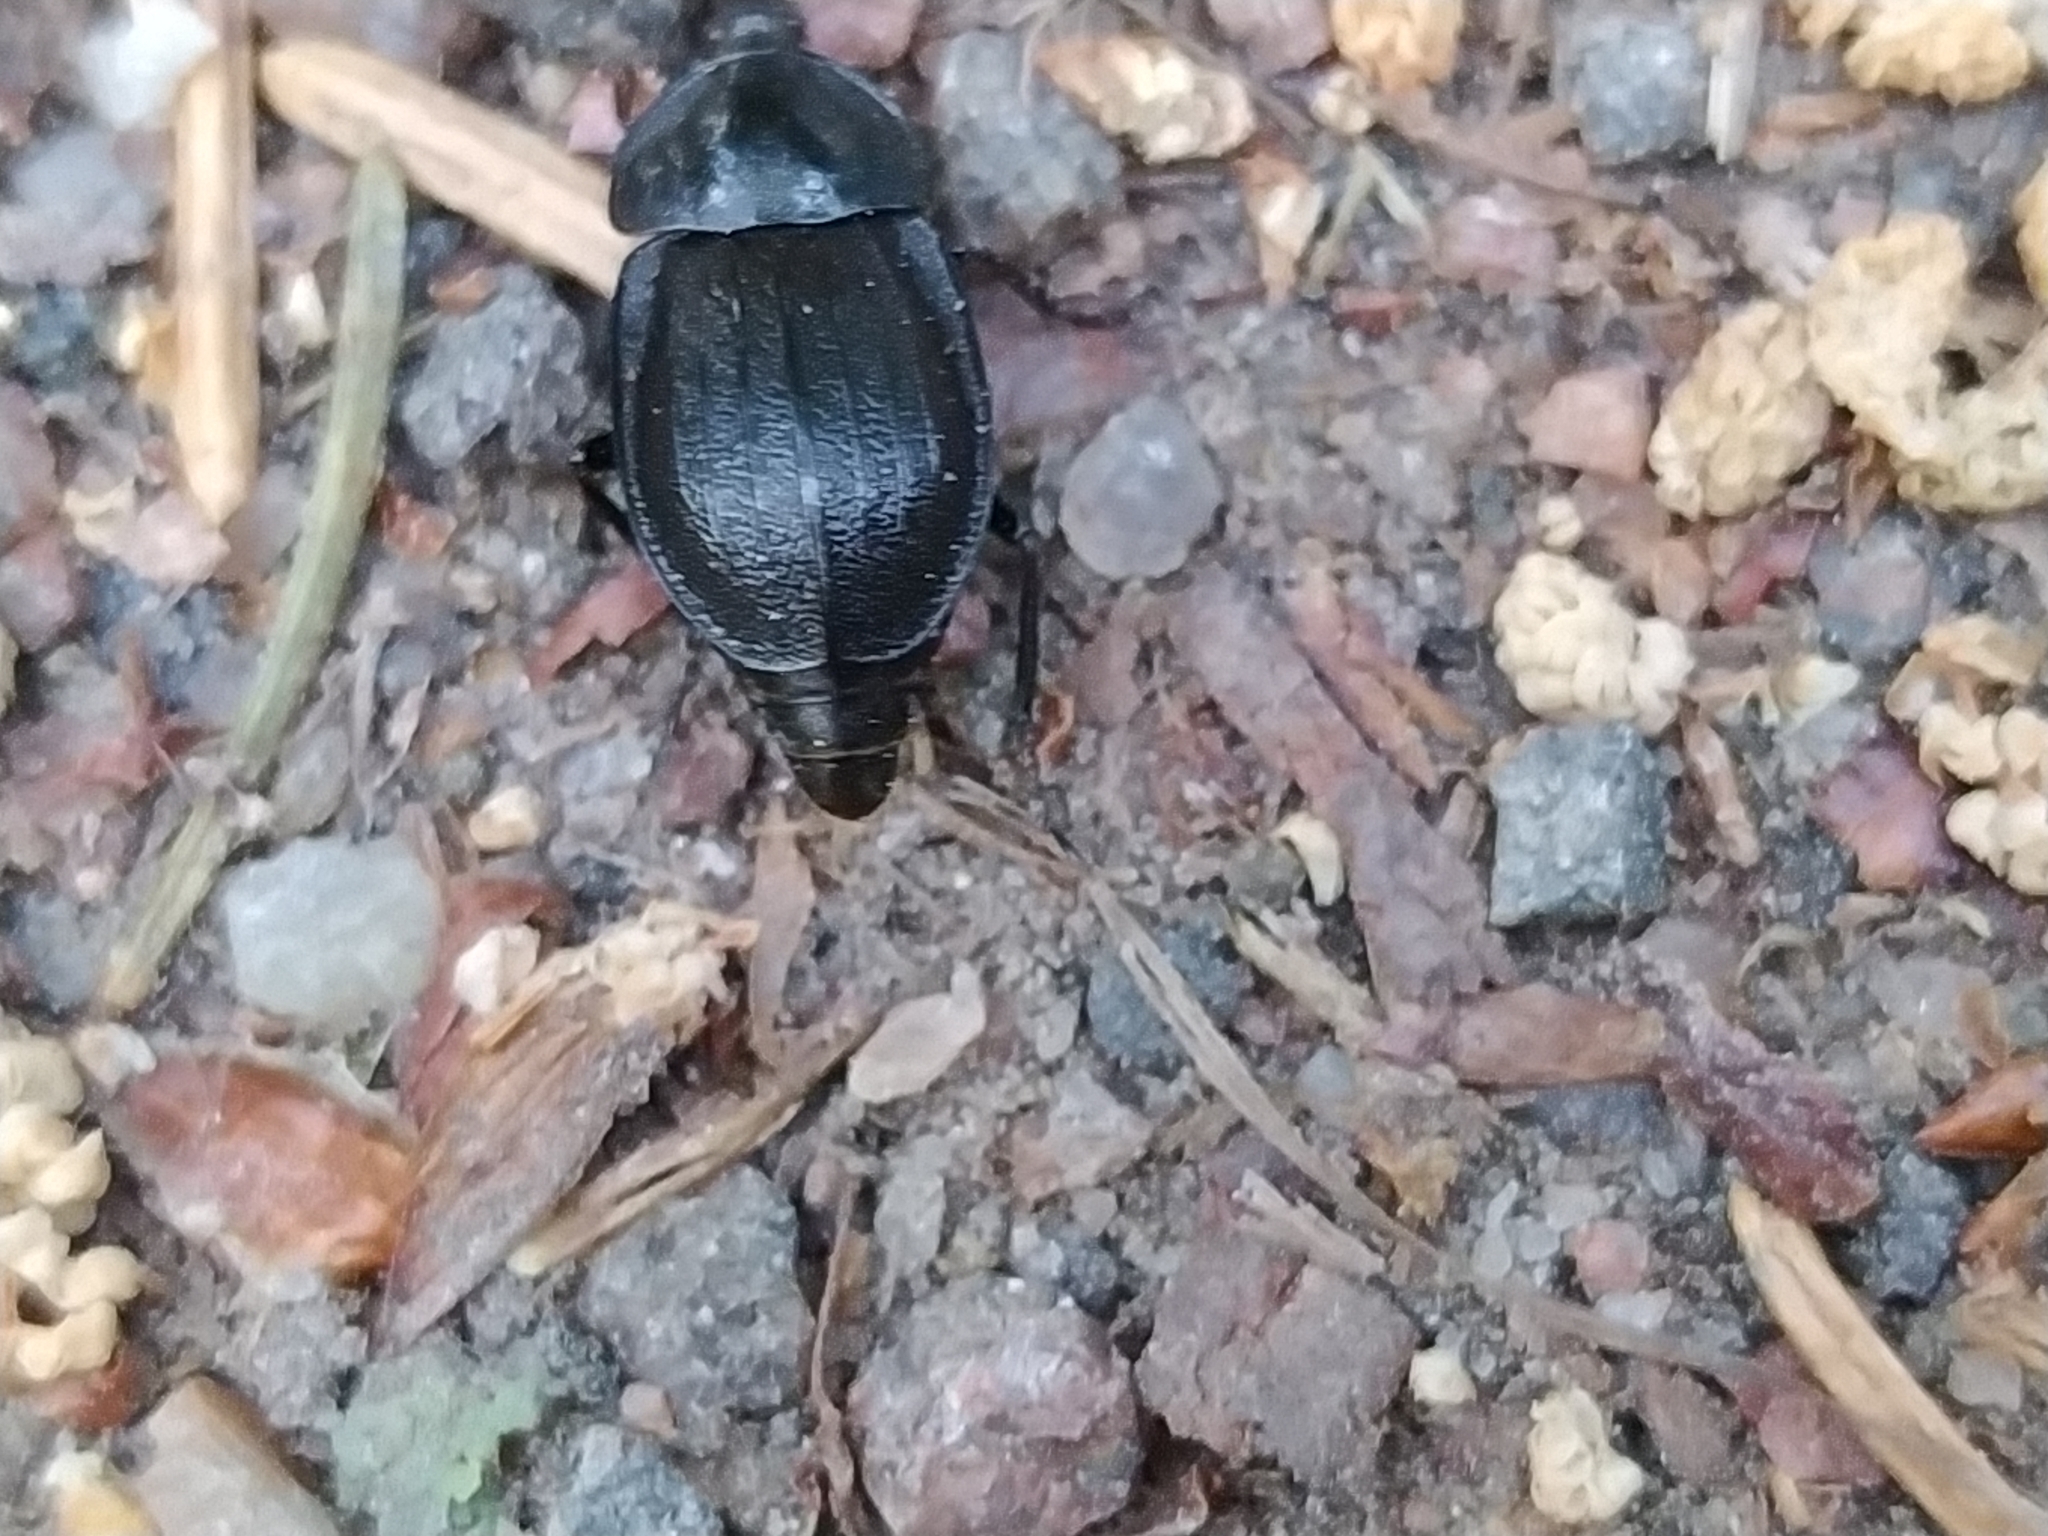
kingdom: Animalia
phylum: Arthropoda
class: Insecta
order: Coleoptera
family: Staphylinidae
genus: Silpha
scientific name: Silpha atrata
